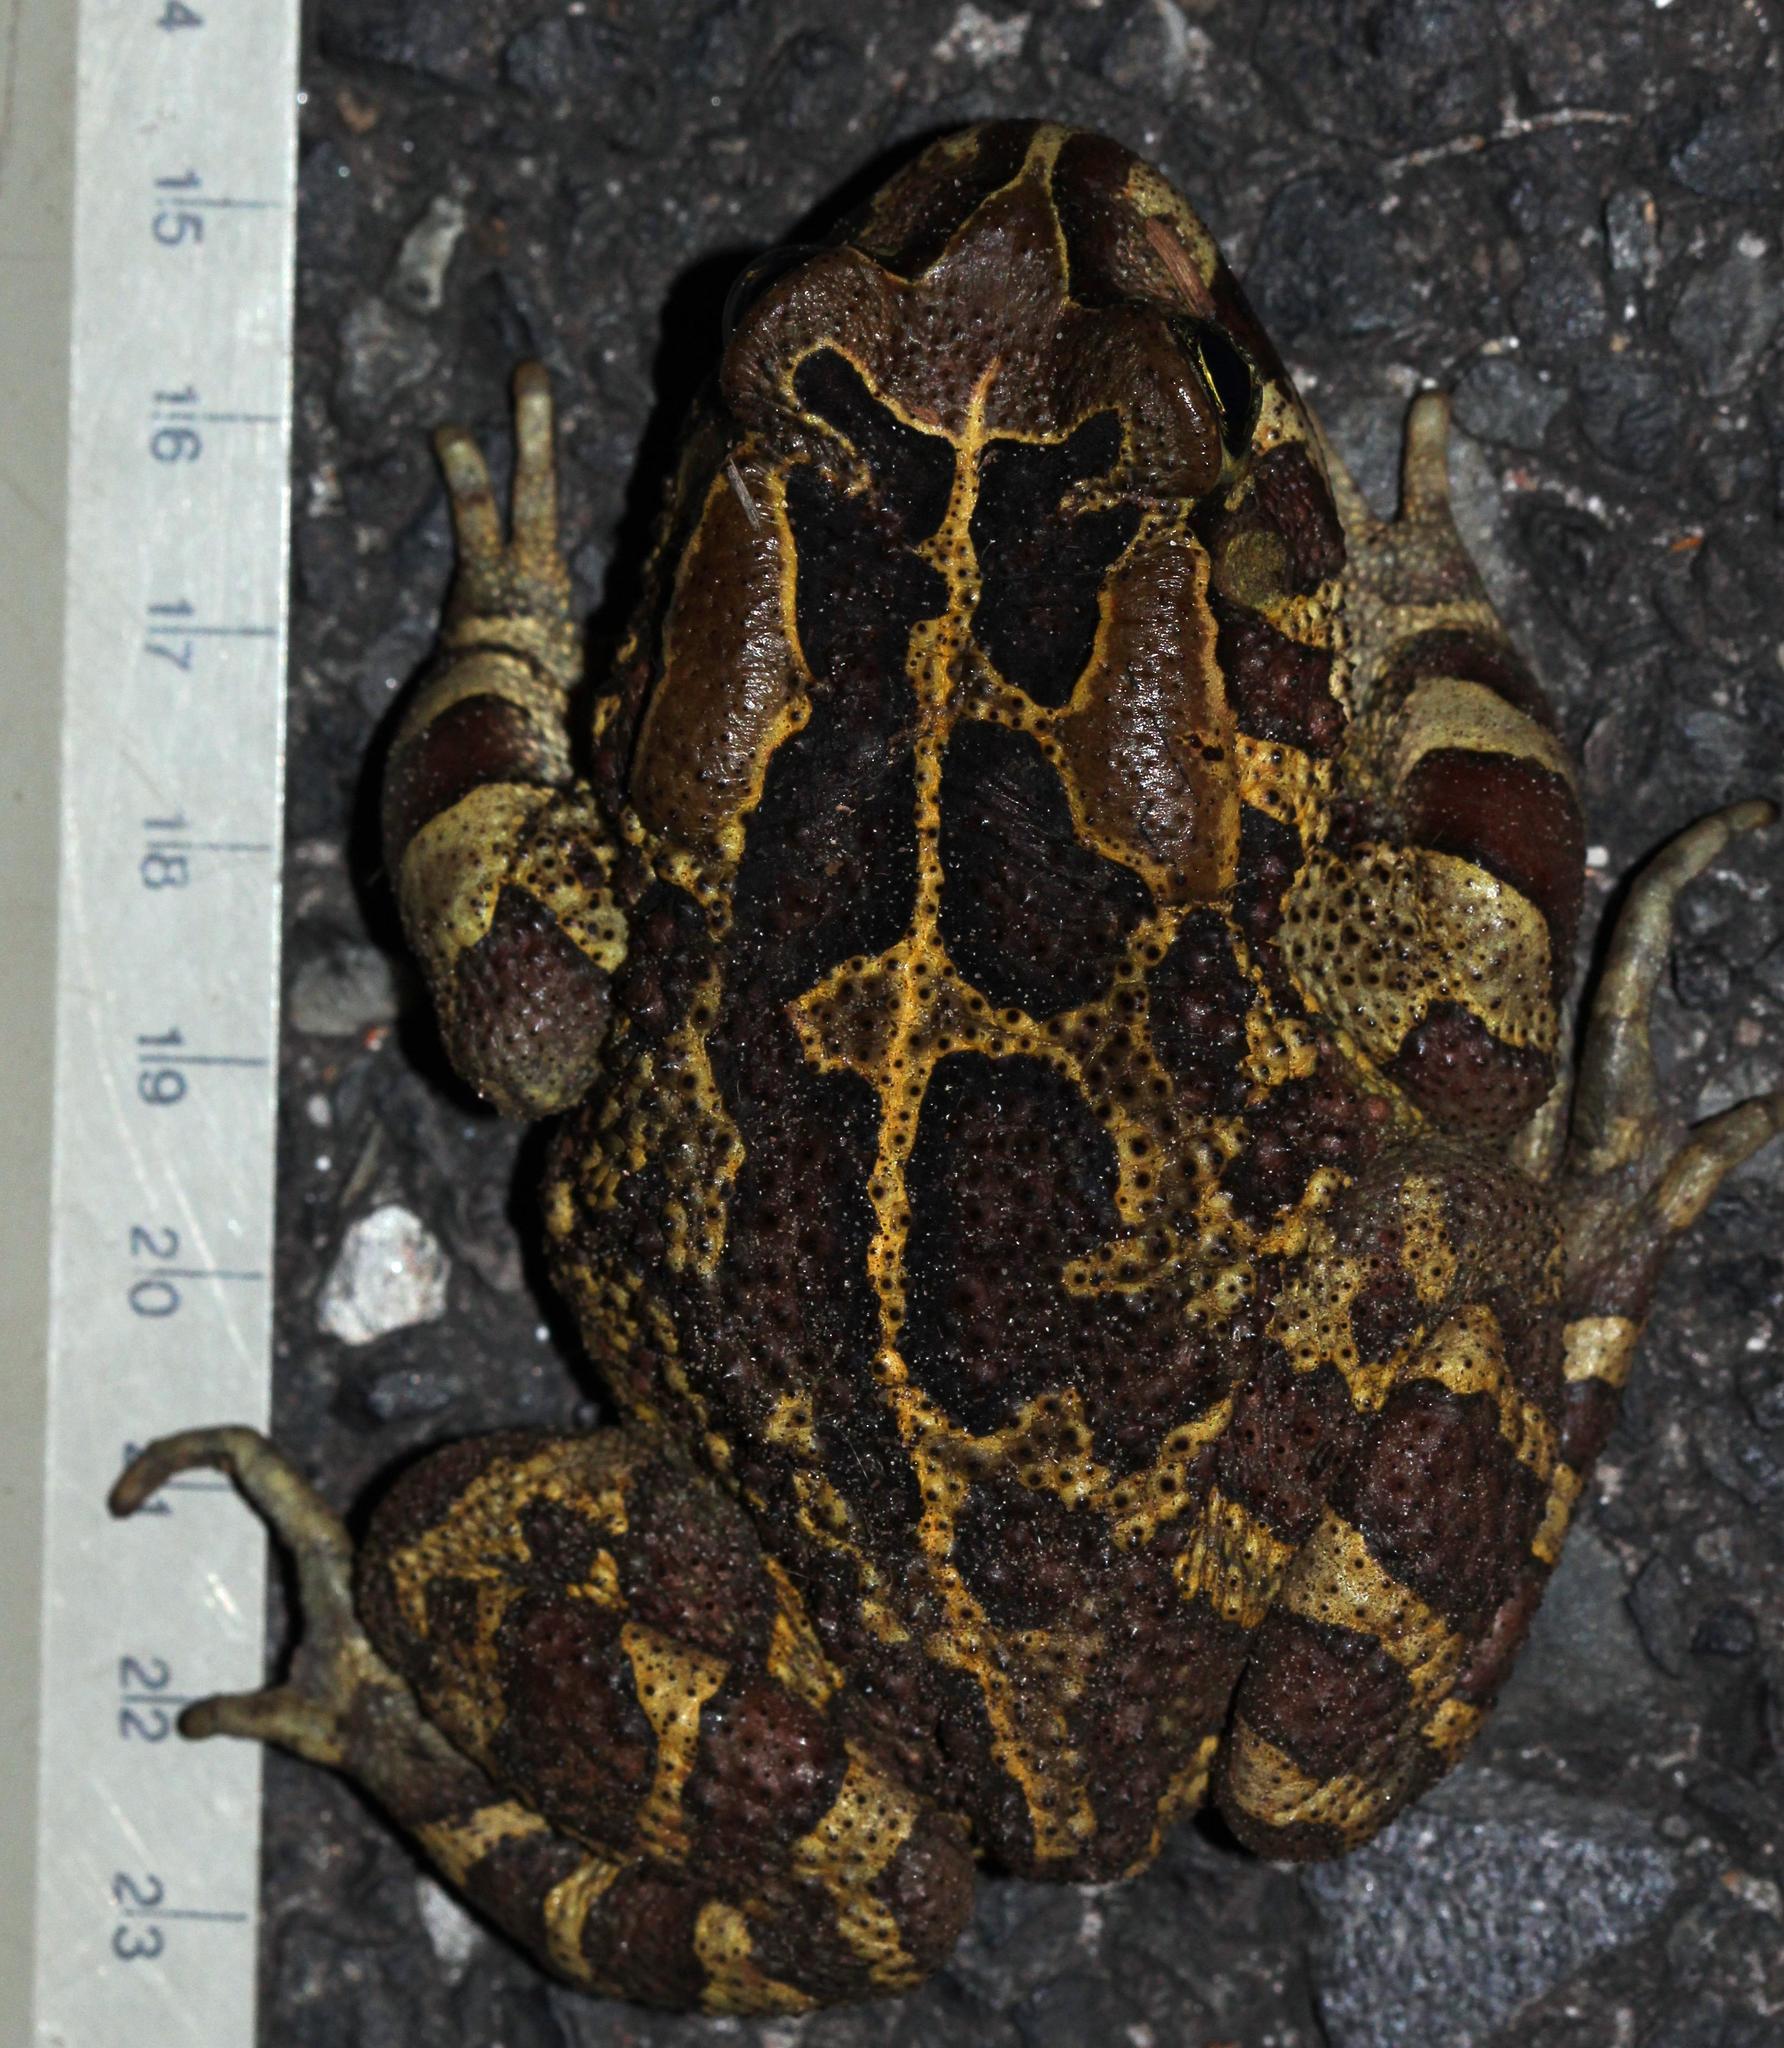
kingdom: Animalia
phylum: Chordata
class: Amphibia
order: Anura
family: Bufonidae
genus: Sclerophrys
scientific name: Sclerophrys pantherina
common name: Panther toad
